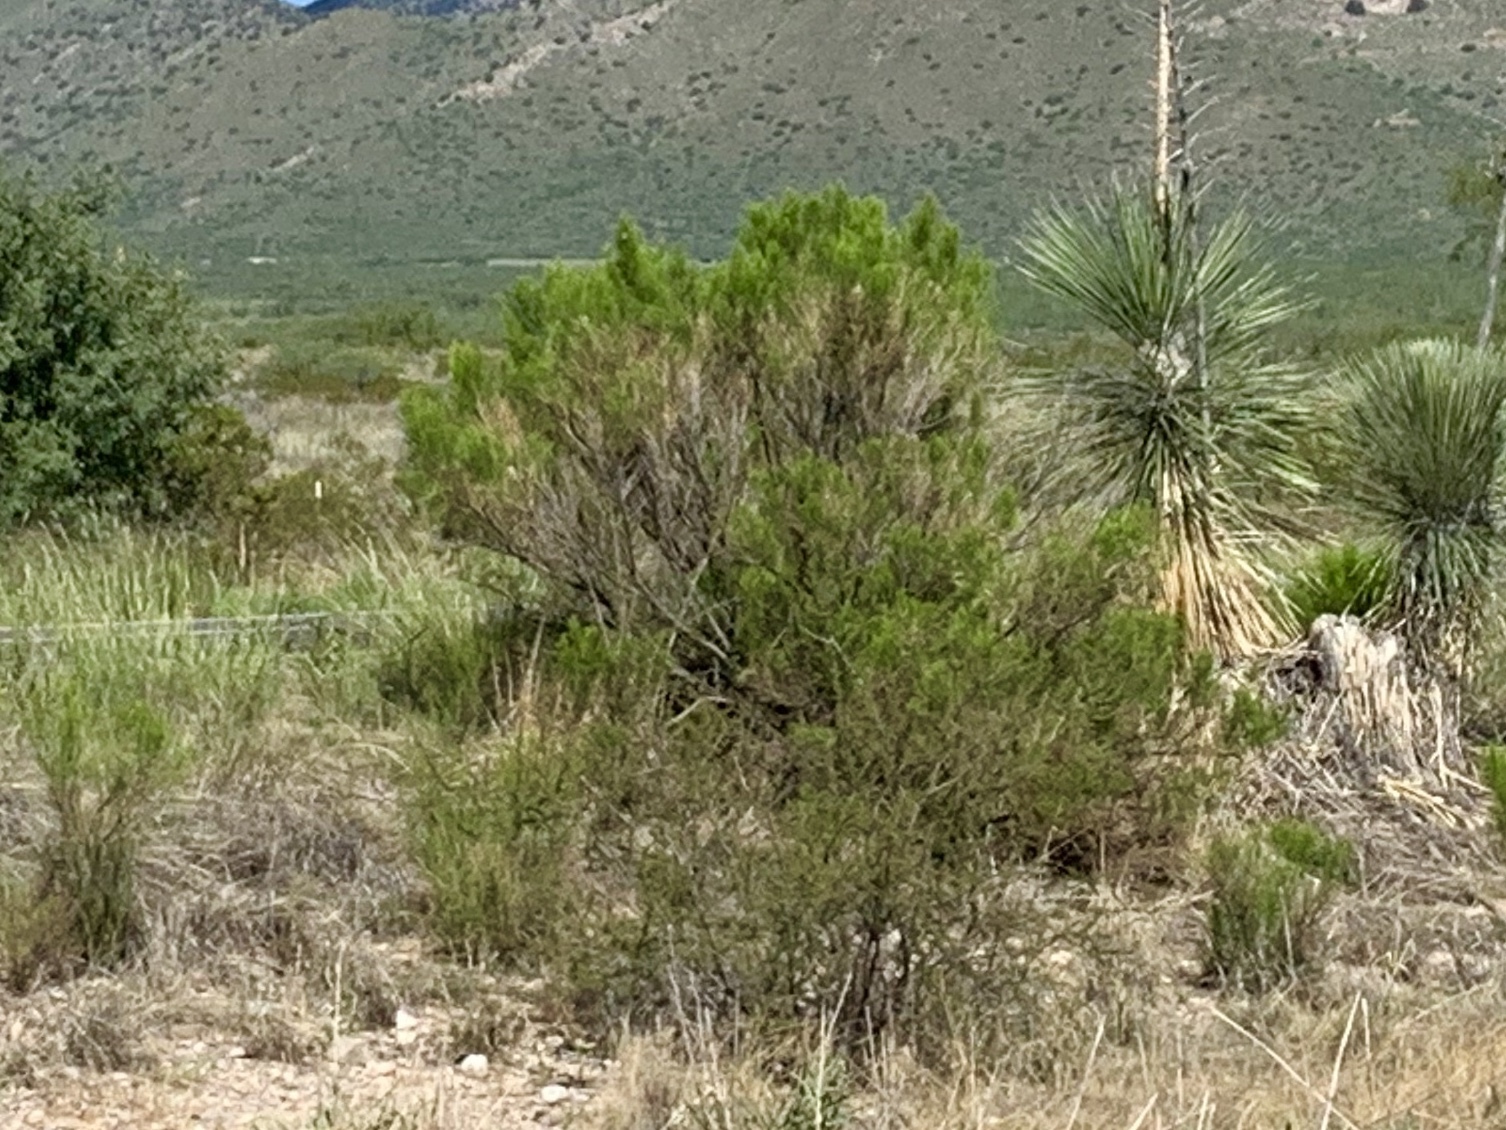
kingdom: Plantae
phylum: Tracheophyta
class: Magnoliopsida
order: Asterales
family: Asteraceae
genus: Baccharis
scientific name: Baccharis sarothroides
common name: Desert-broom
